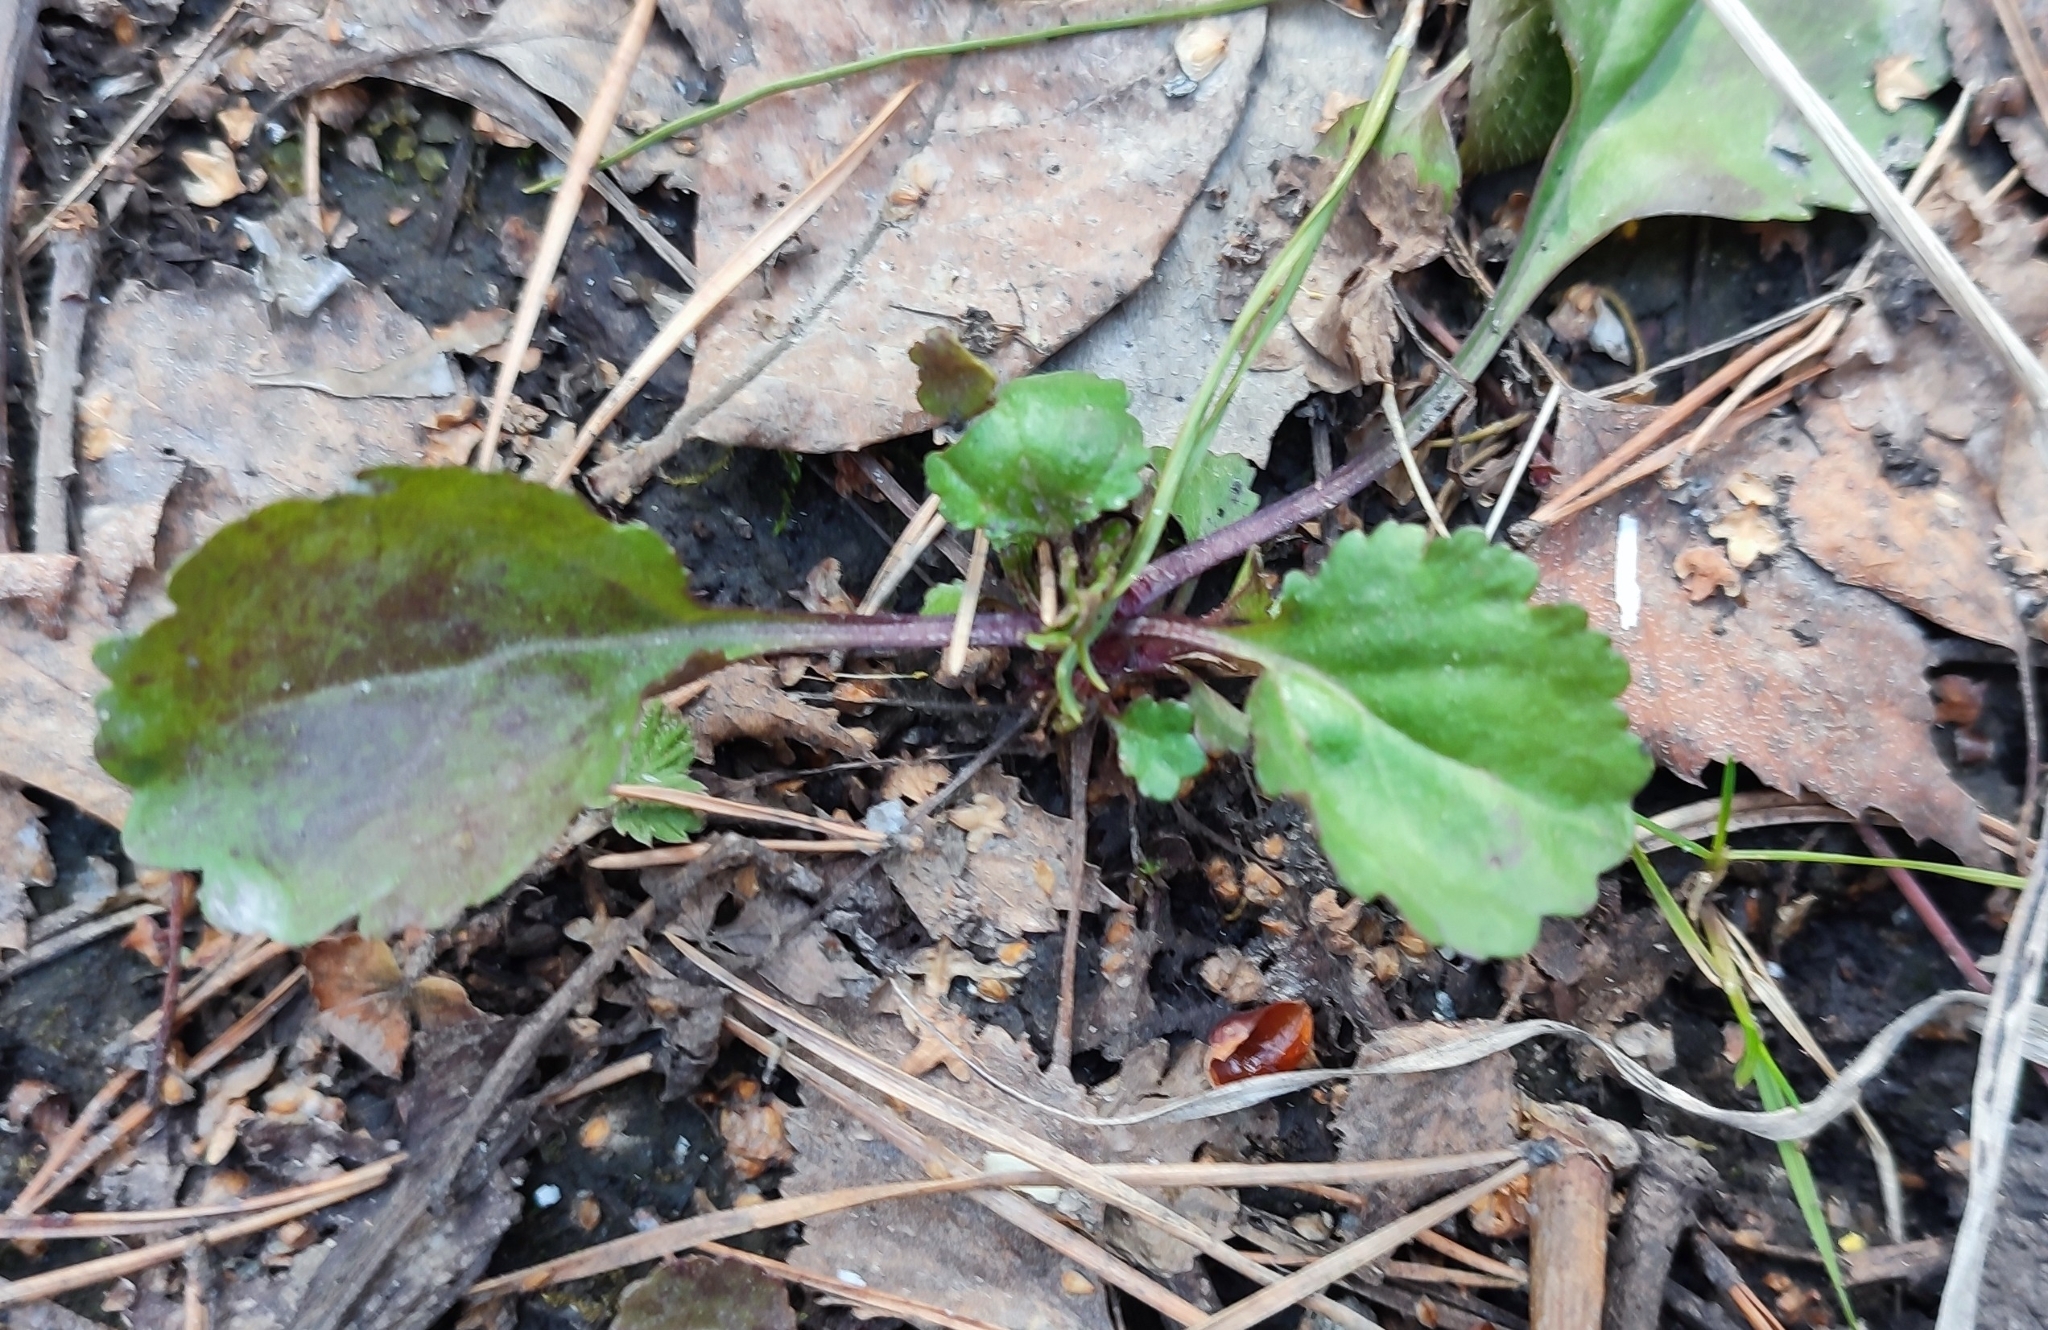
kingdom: Plantae
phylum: Tracheophyta
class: Magnoliopsida
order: Asterales
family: Asteraceae
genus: Leucanthemum
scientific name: Leucanthemum ircutianum
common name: Daisy
